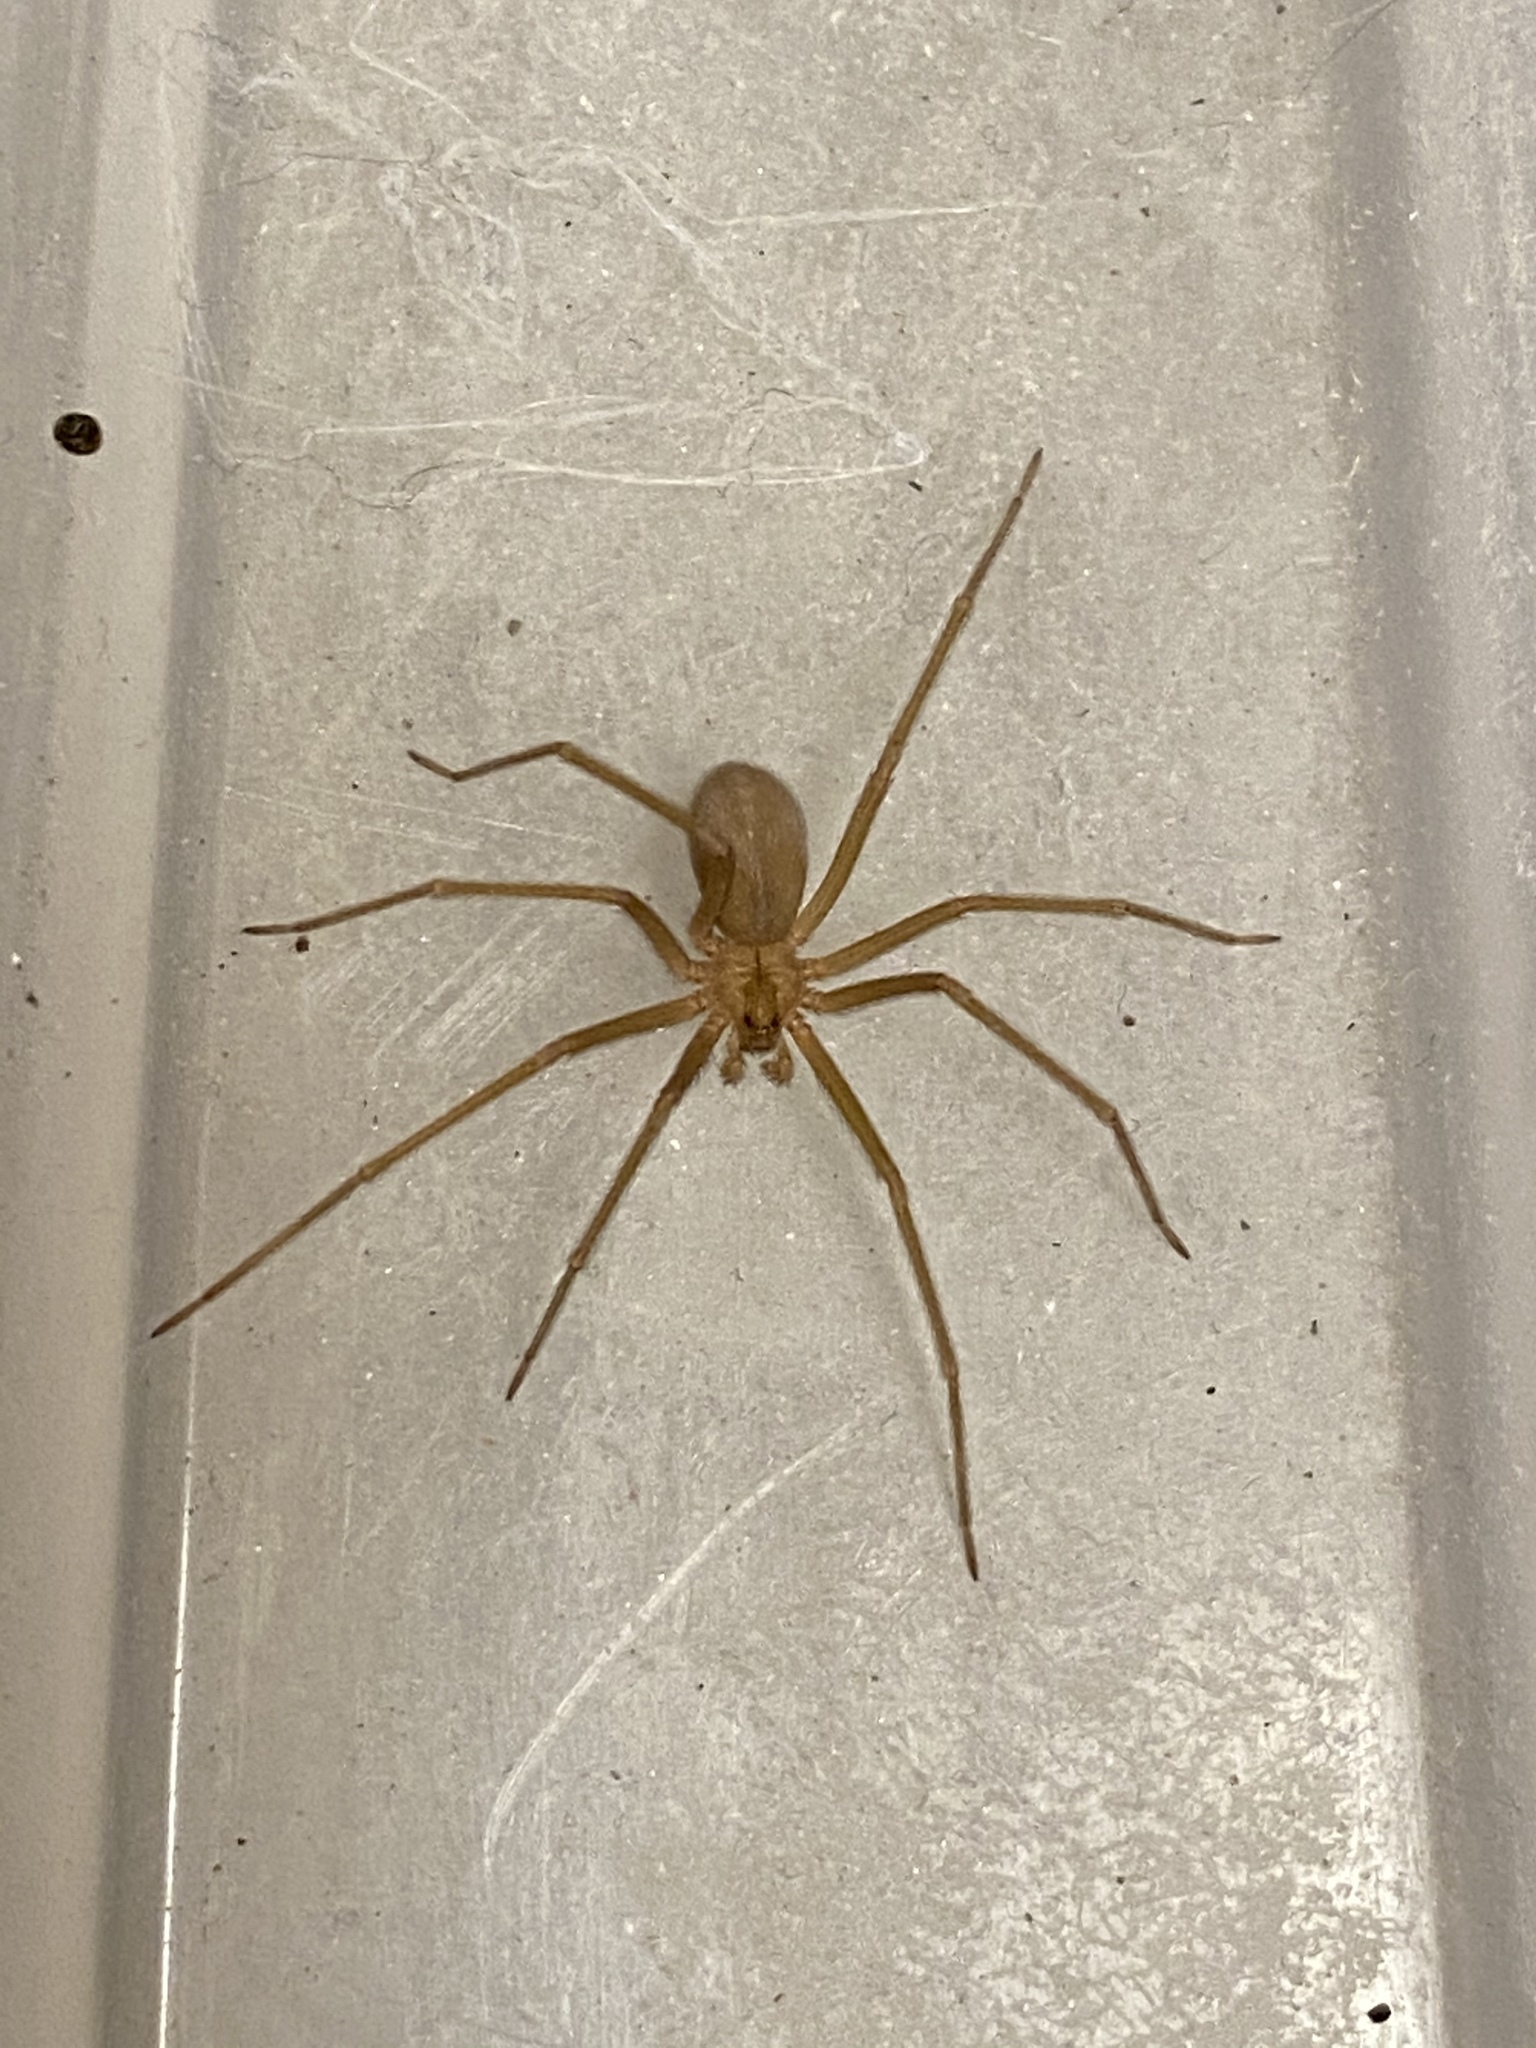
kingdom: Animalia
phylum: Arthropoda
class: Arachnida
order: Araneae
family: Sicariidae
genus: Loxosceles
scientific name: Loxosceles deserta
